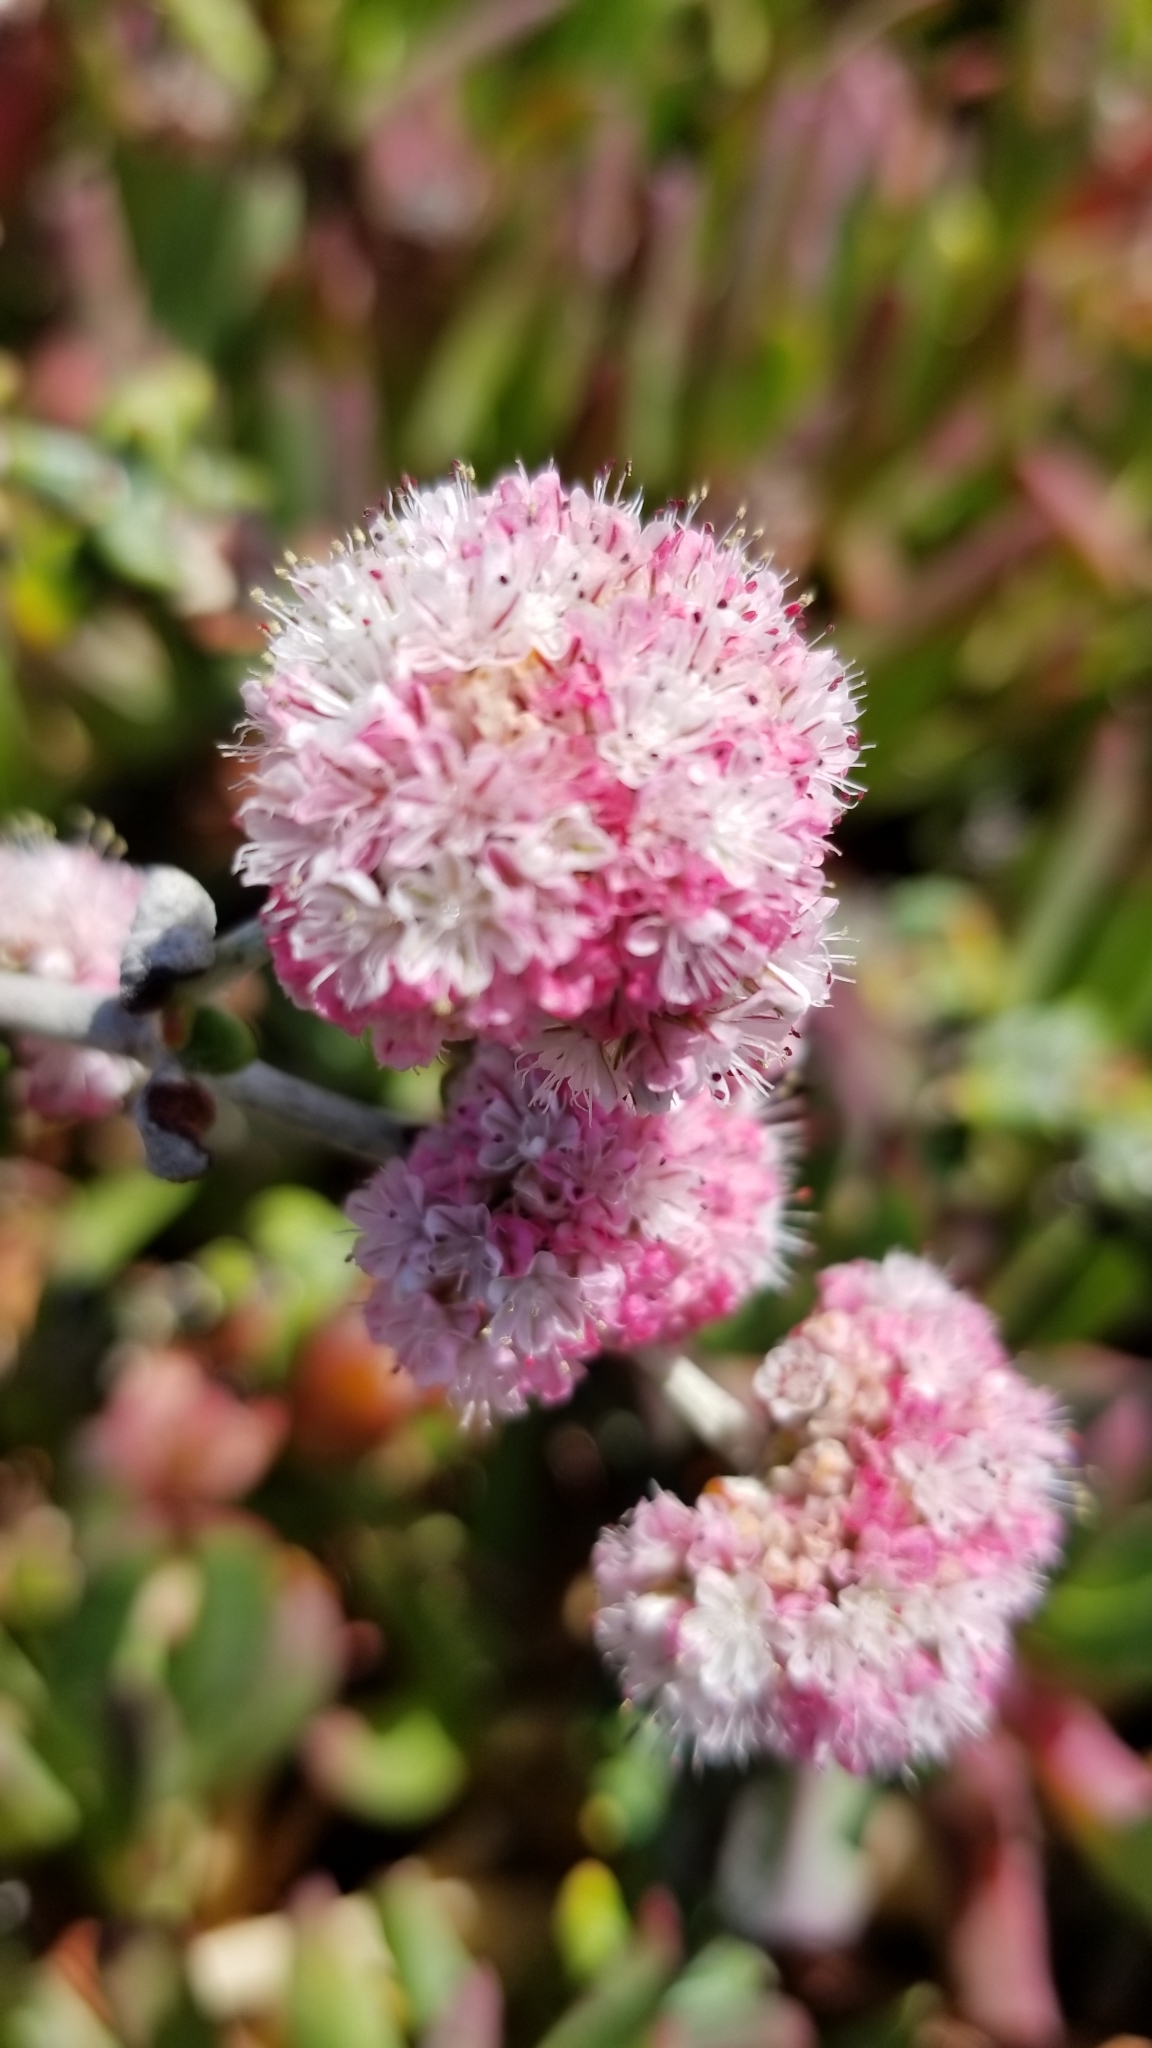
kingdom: Plantae
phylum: Tracheophyta
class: Magnoliopsida
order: Caryophyllales
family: Polygonaceae
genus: Eriogonum
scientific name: Eriogonum parvifolium
